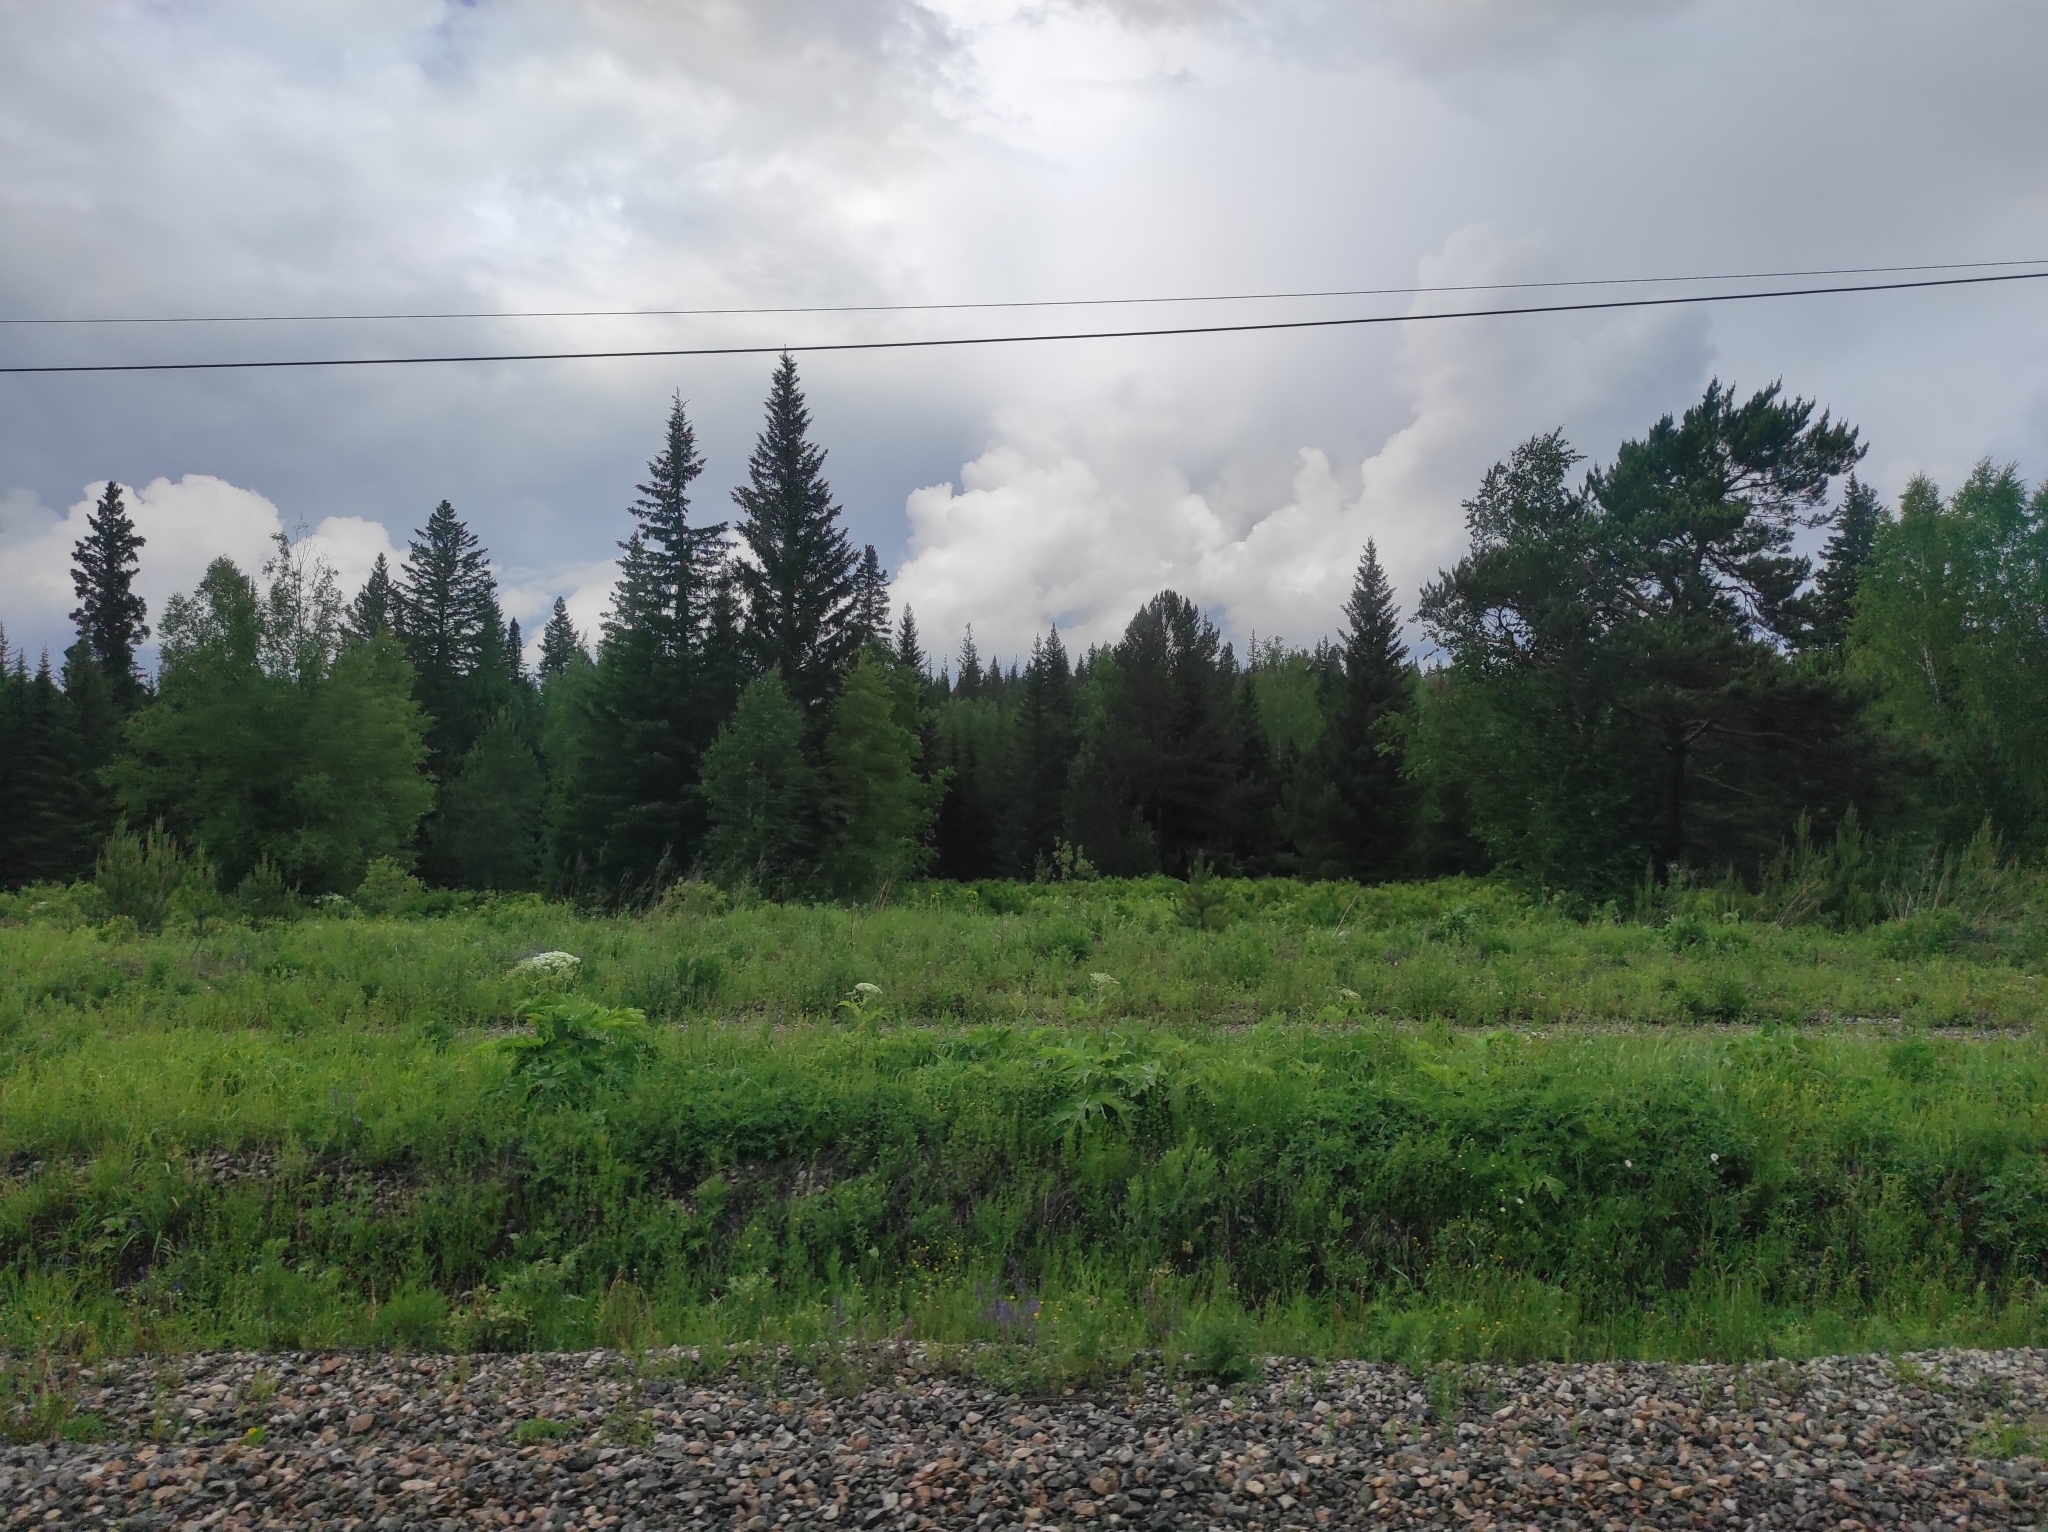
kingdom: Plantae
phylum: Tracheophyta
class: Pinopsida
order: Pinales
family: Pinaceae
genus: Pinus
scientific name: Pinus sylvestris
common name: Scots pine
